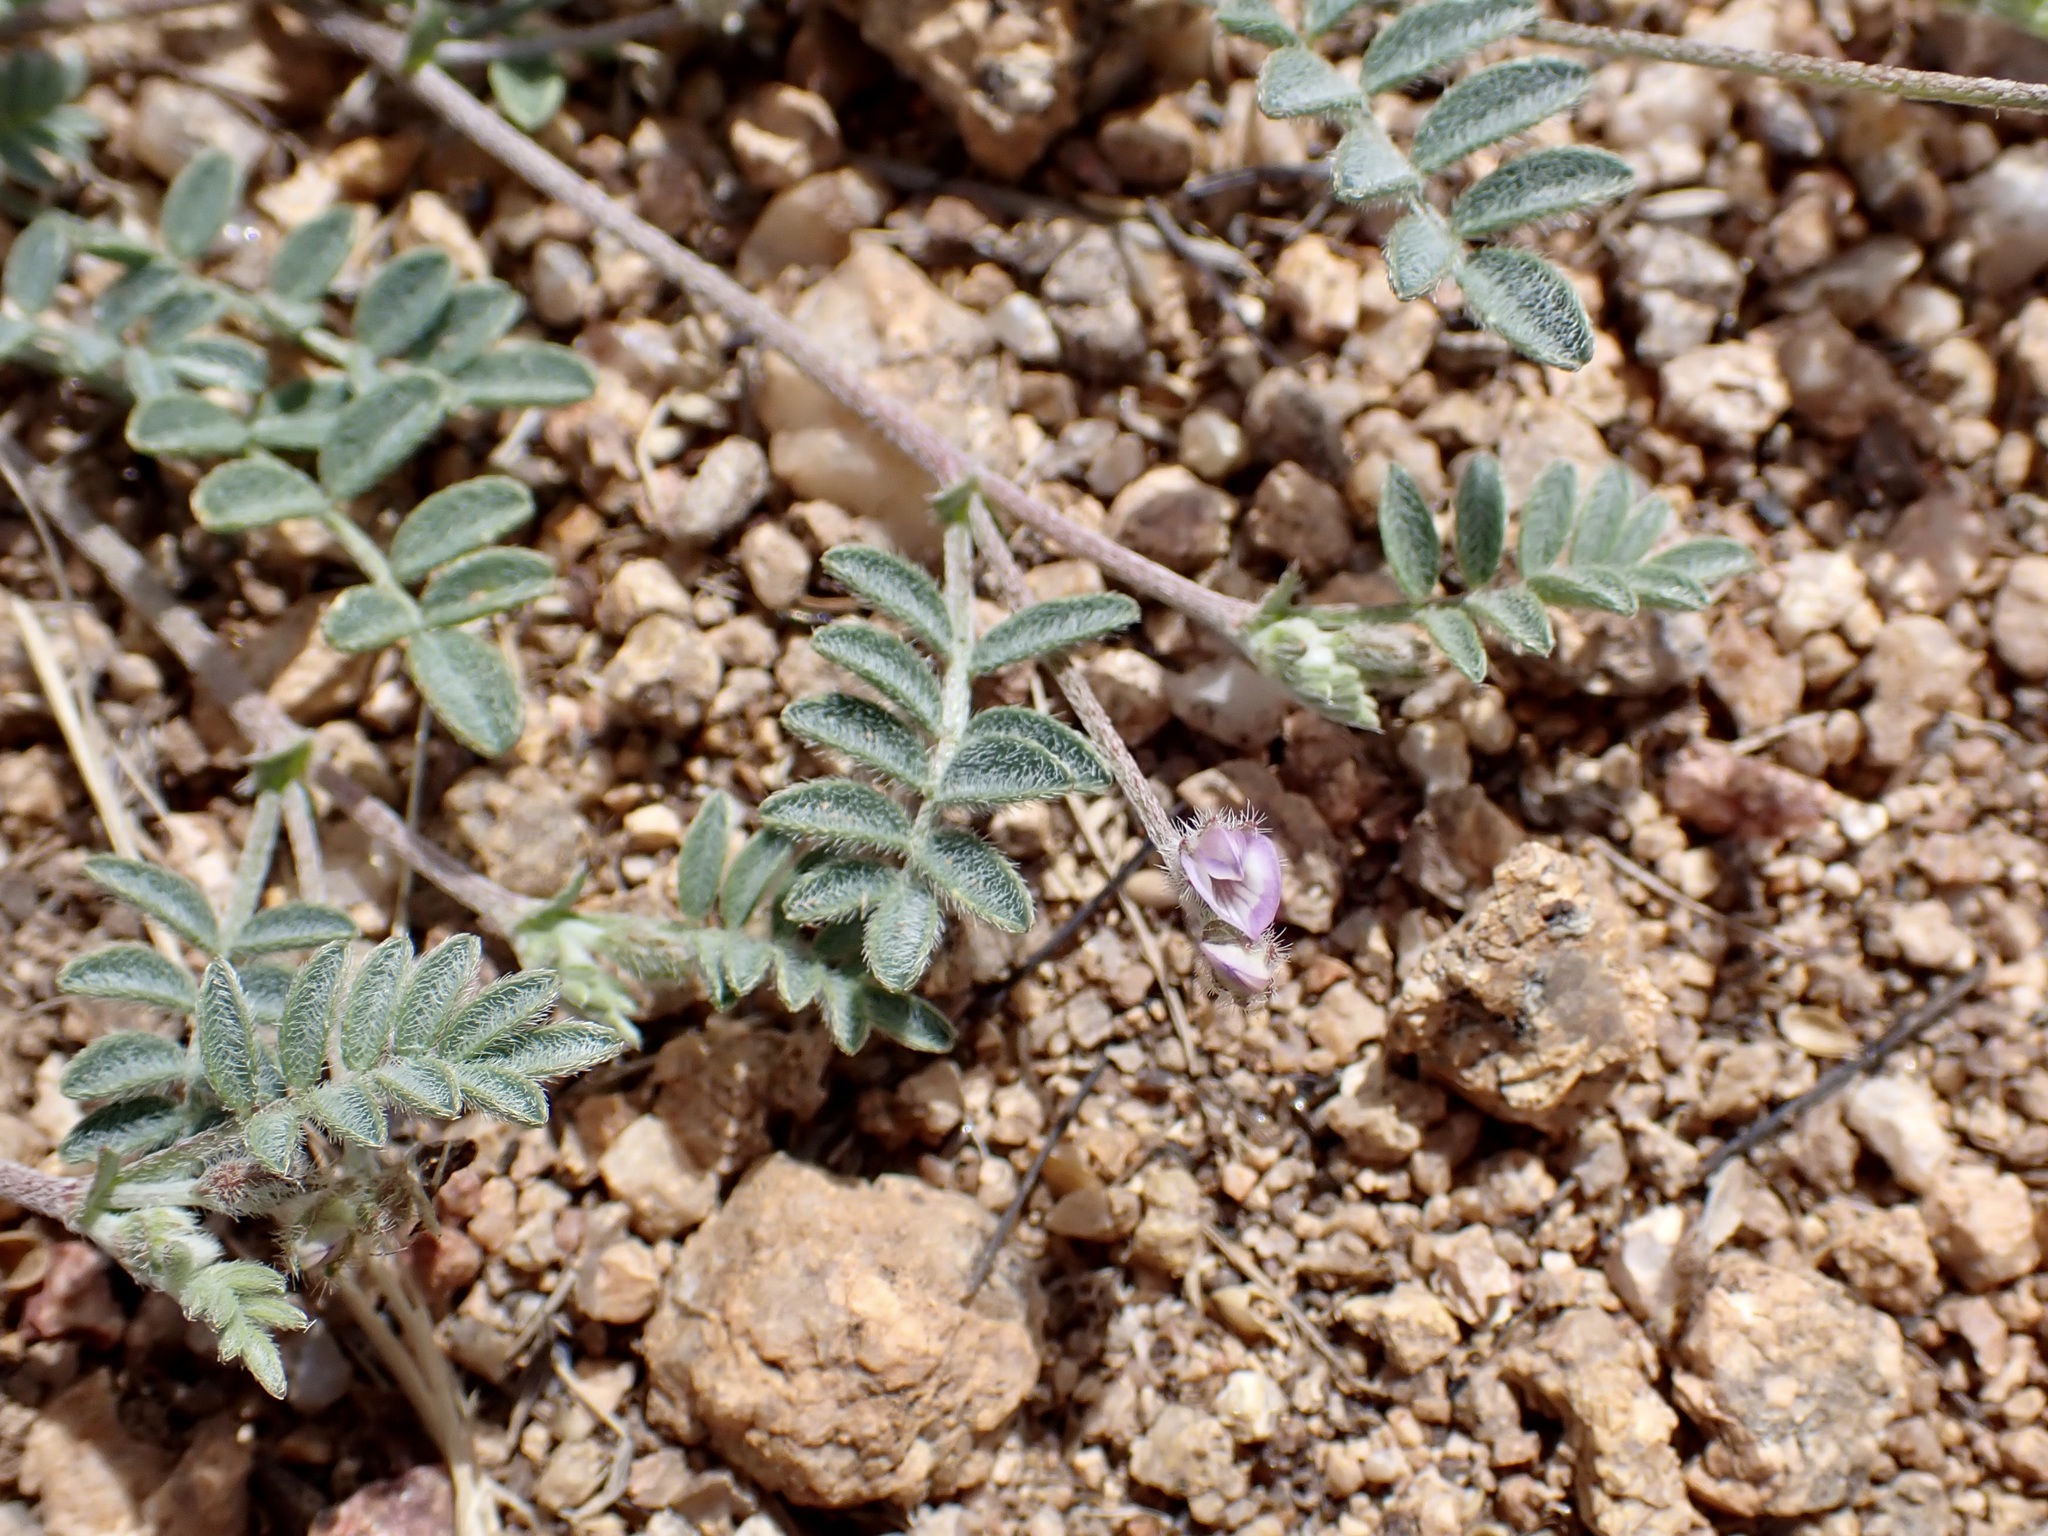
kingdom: Plantae
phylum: Tracheophyta
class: Magnoliopsida
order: Fabales
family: Fabaceae
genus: Astragalus
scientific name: Astragalus nuttallianus
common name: Smallflowered milkvetch
